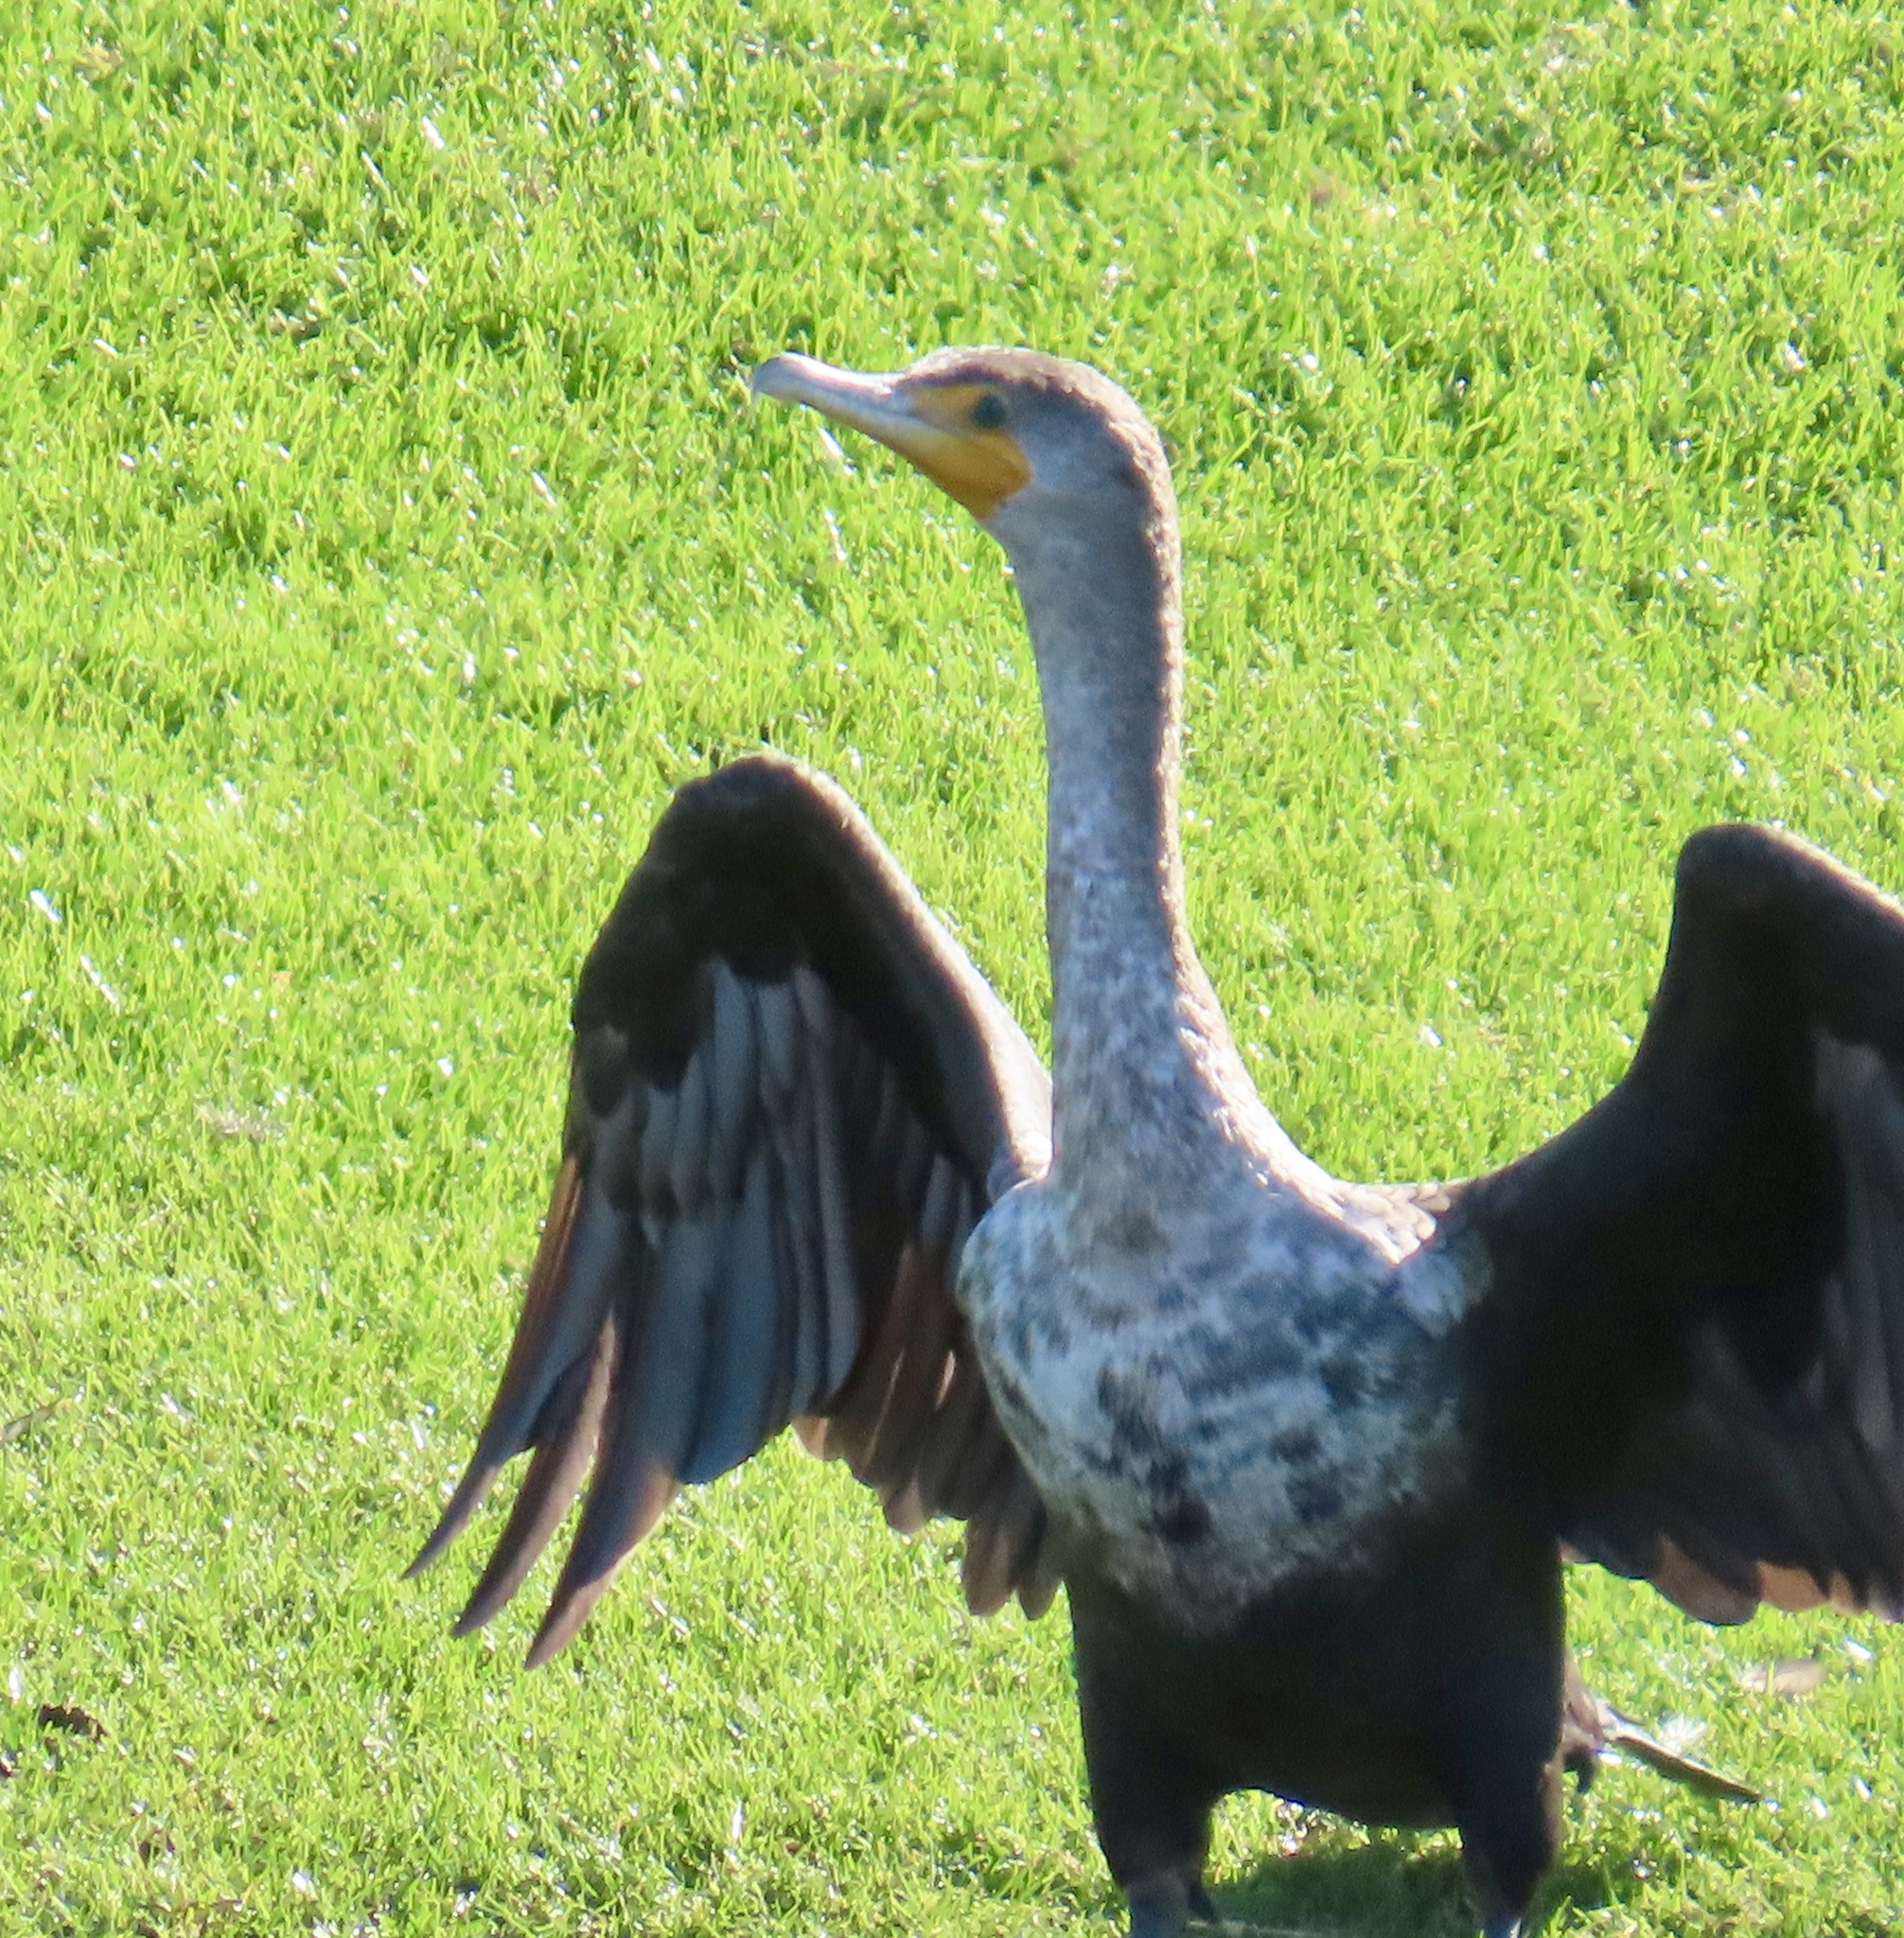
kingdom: Animalia
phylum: Chordata
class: Aves
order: Suliformes
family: Phalacrocoracidae
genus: Phalacrocorax
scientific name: Phalacrocorax auritus
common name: Double-crested cormorant
